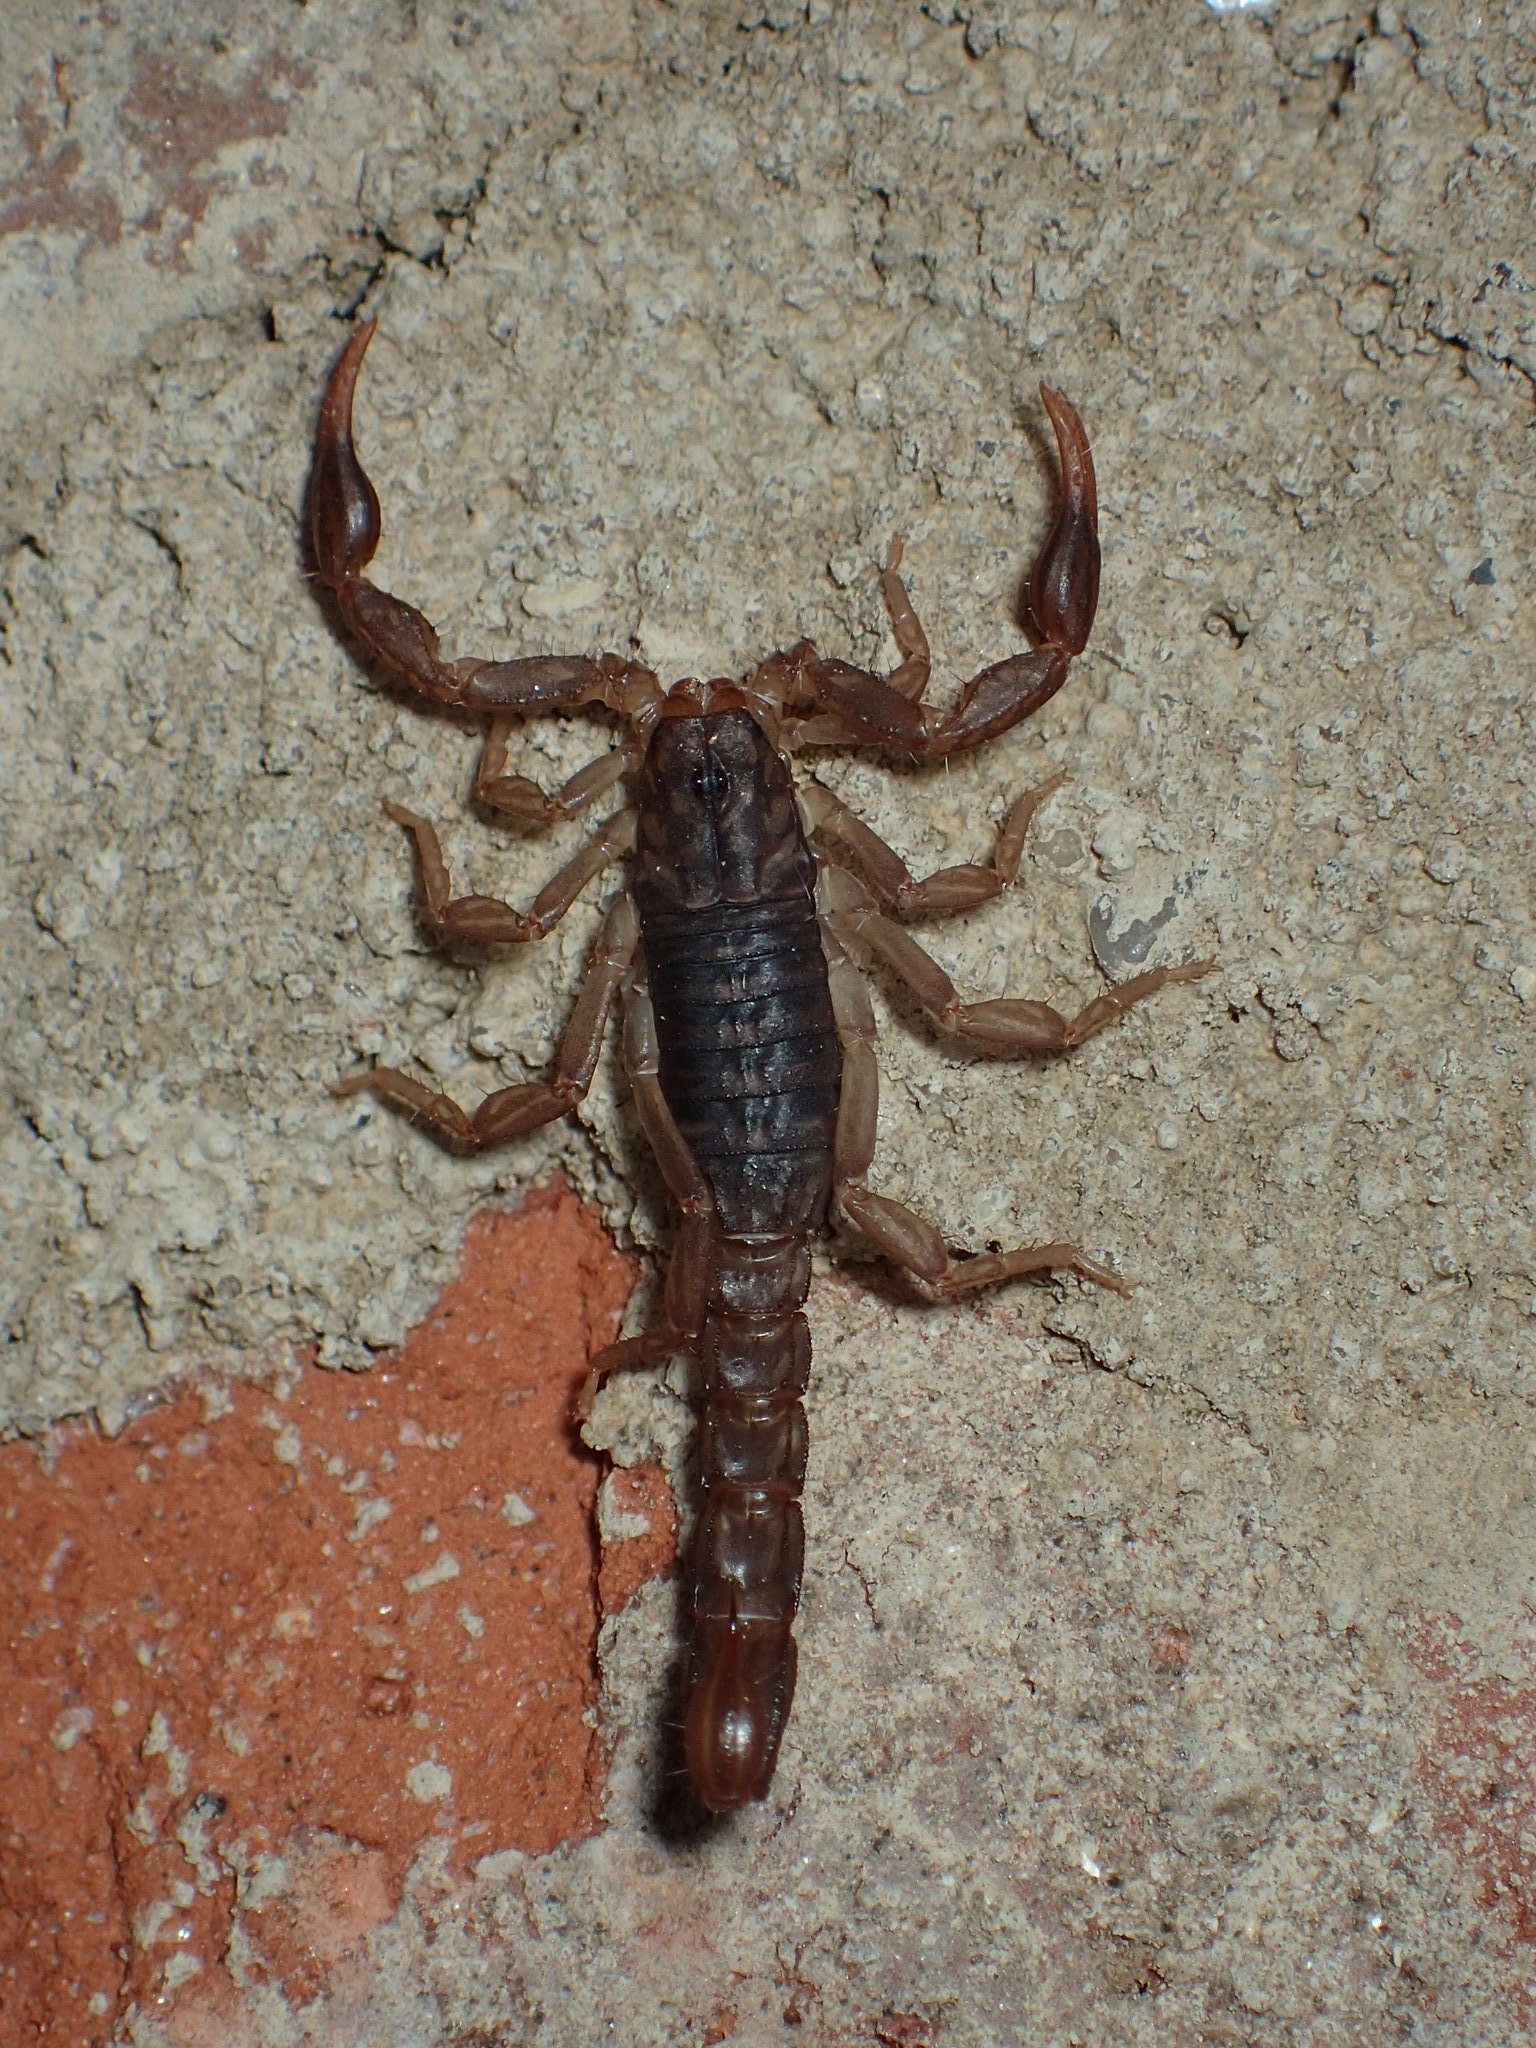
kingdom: Animalia
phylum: Arthropoda
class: Arachnida
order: Scorpiones
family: Vaejovidae
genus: Vaejovis
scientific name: Vaejovis carolinianus
